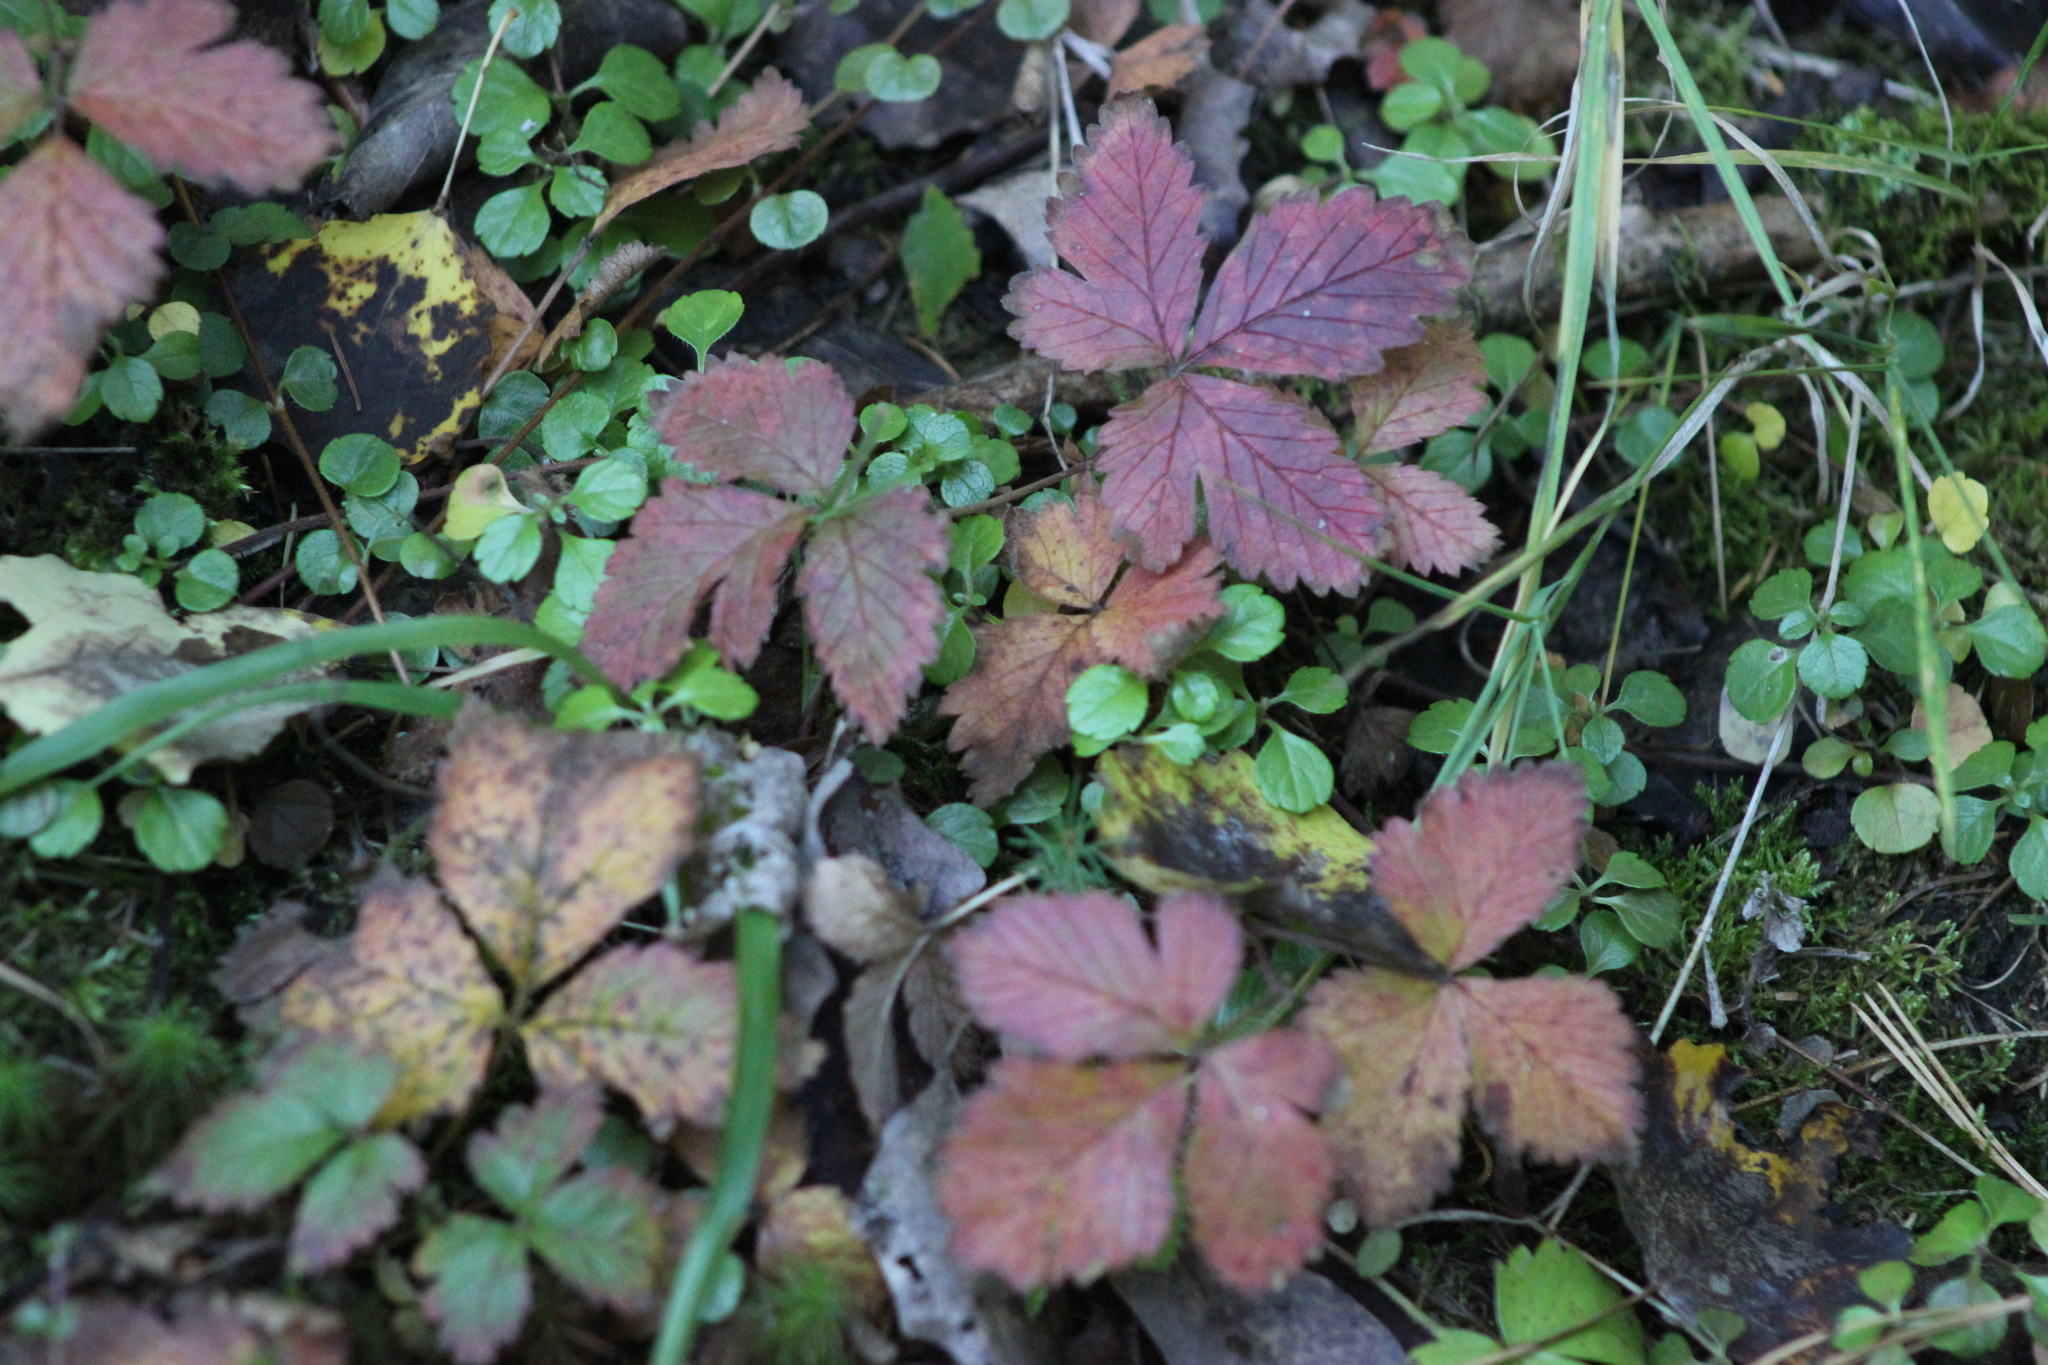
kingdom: Plantae
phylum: Tracheophyta
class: Magnoliopsida
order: Rosales
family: Rosaceae
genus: Rubus
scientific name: Rubus arcticus
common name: Arctic bramble
